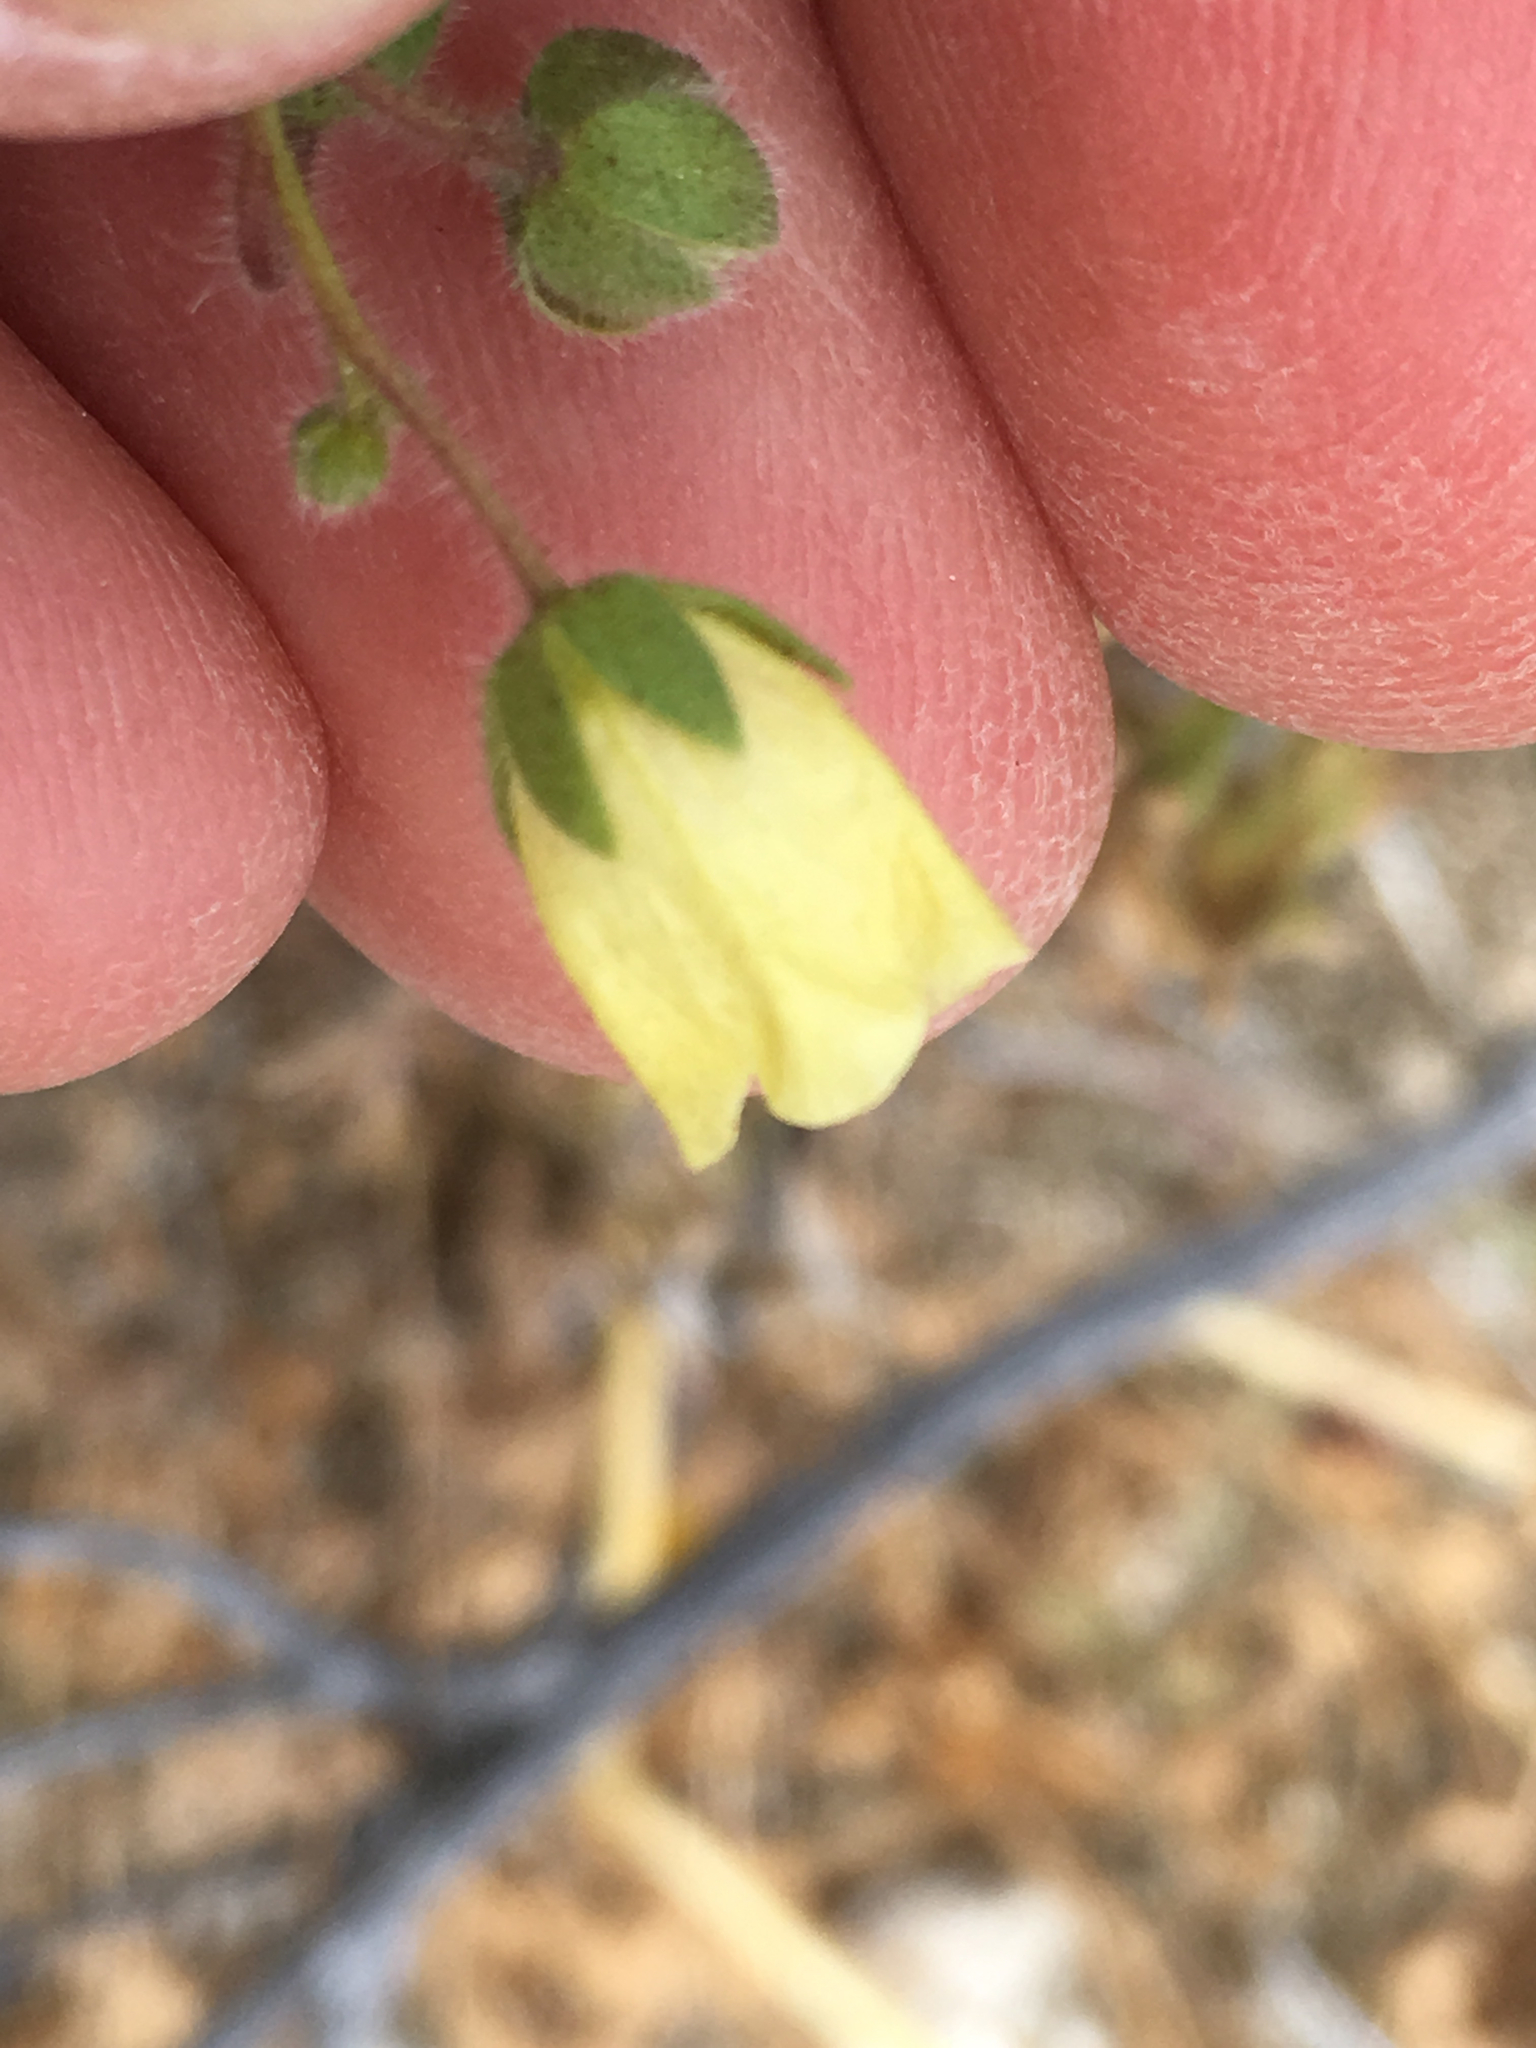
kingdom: Plantae
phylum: Tracheophyta
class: Magnoliopsida
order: Boraginales
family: Hydrophyllaceae
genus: Emmenanthe
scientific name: Emmenanthe penduliflora
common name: Whispering-bells
